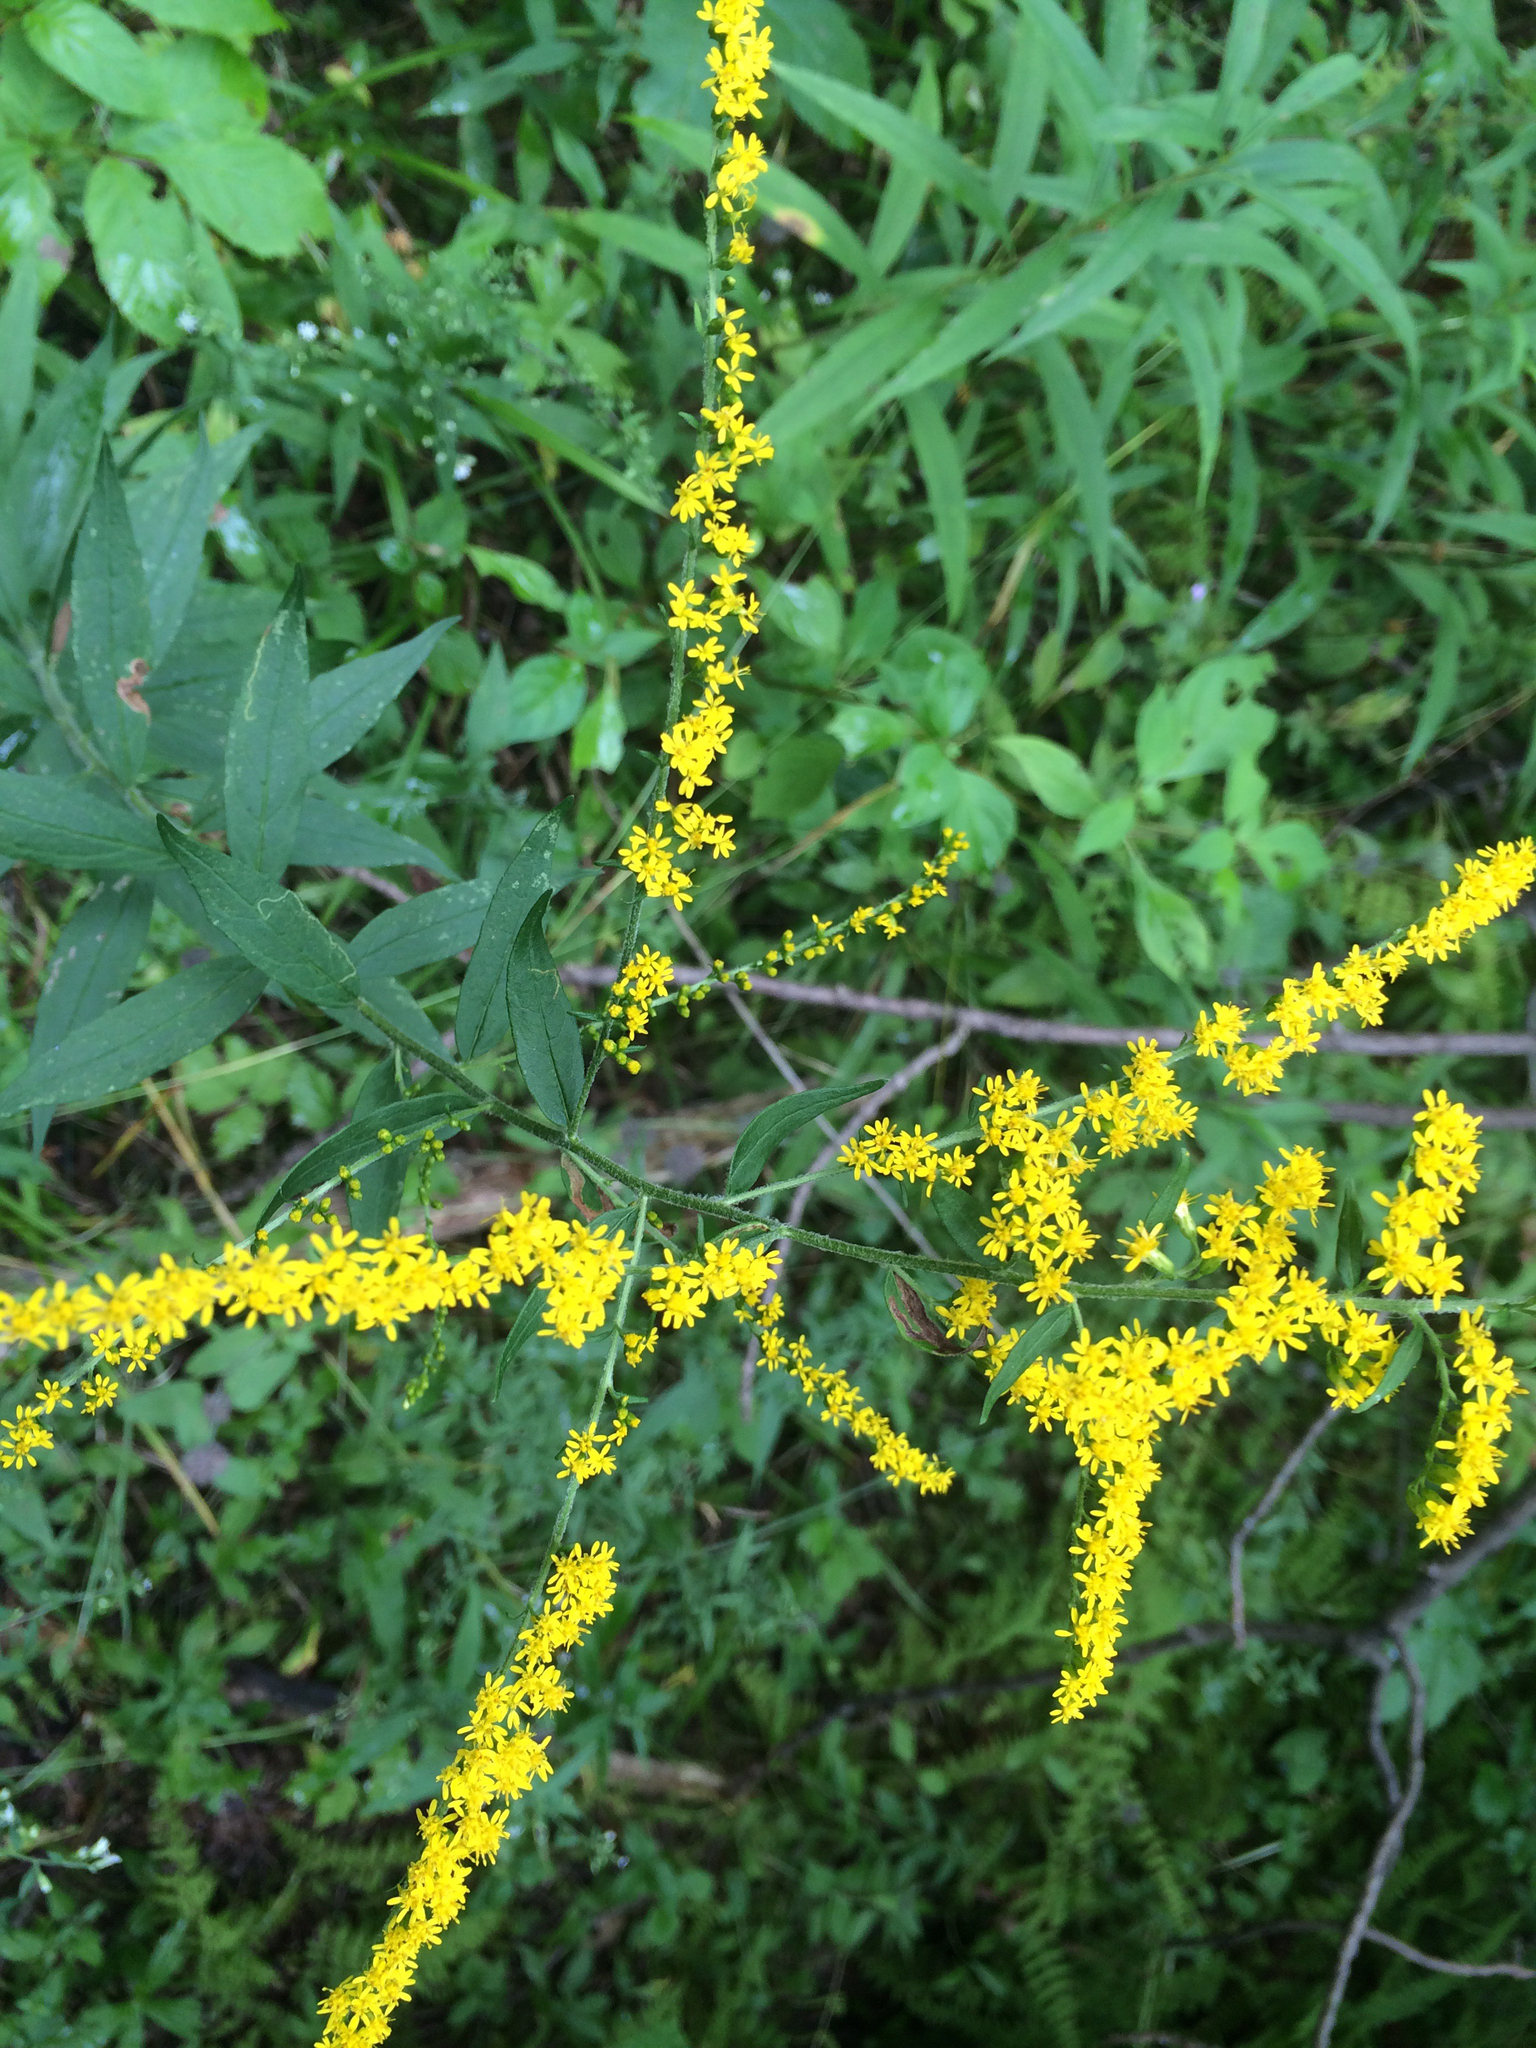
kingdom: Plantae
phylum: Tracheophyta
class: Magnoliopsida
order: Asterales
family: Asteraceae
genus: Solidago
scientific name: Solidago patula
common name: Rough-leaf goldenrod
